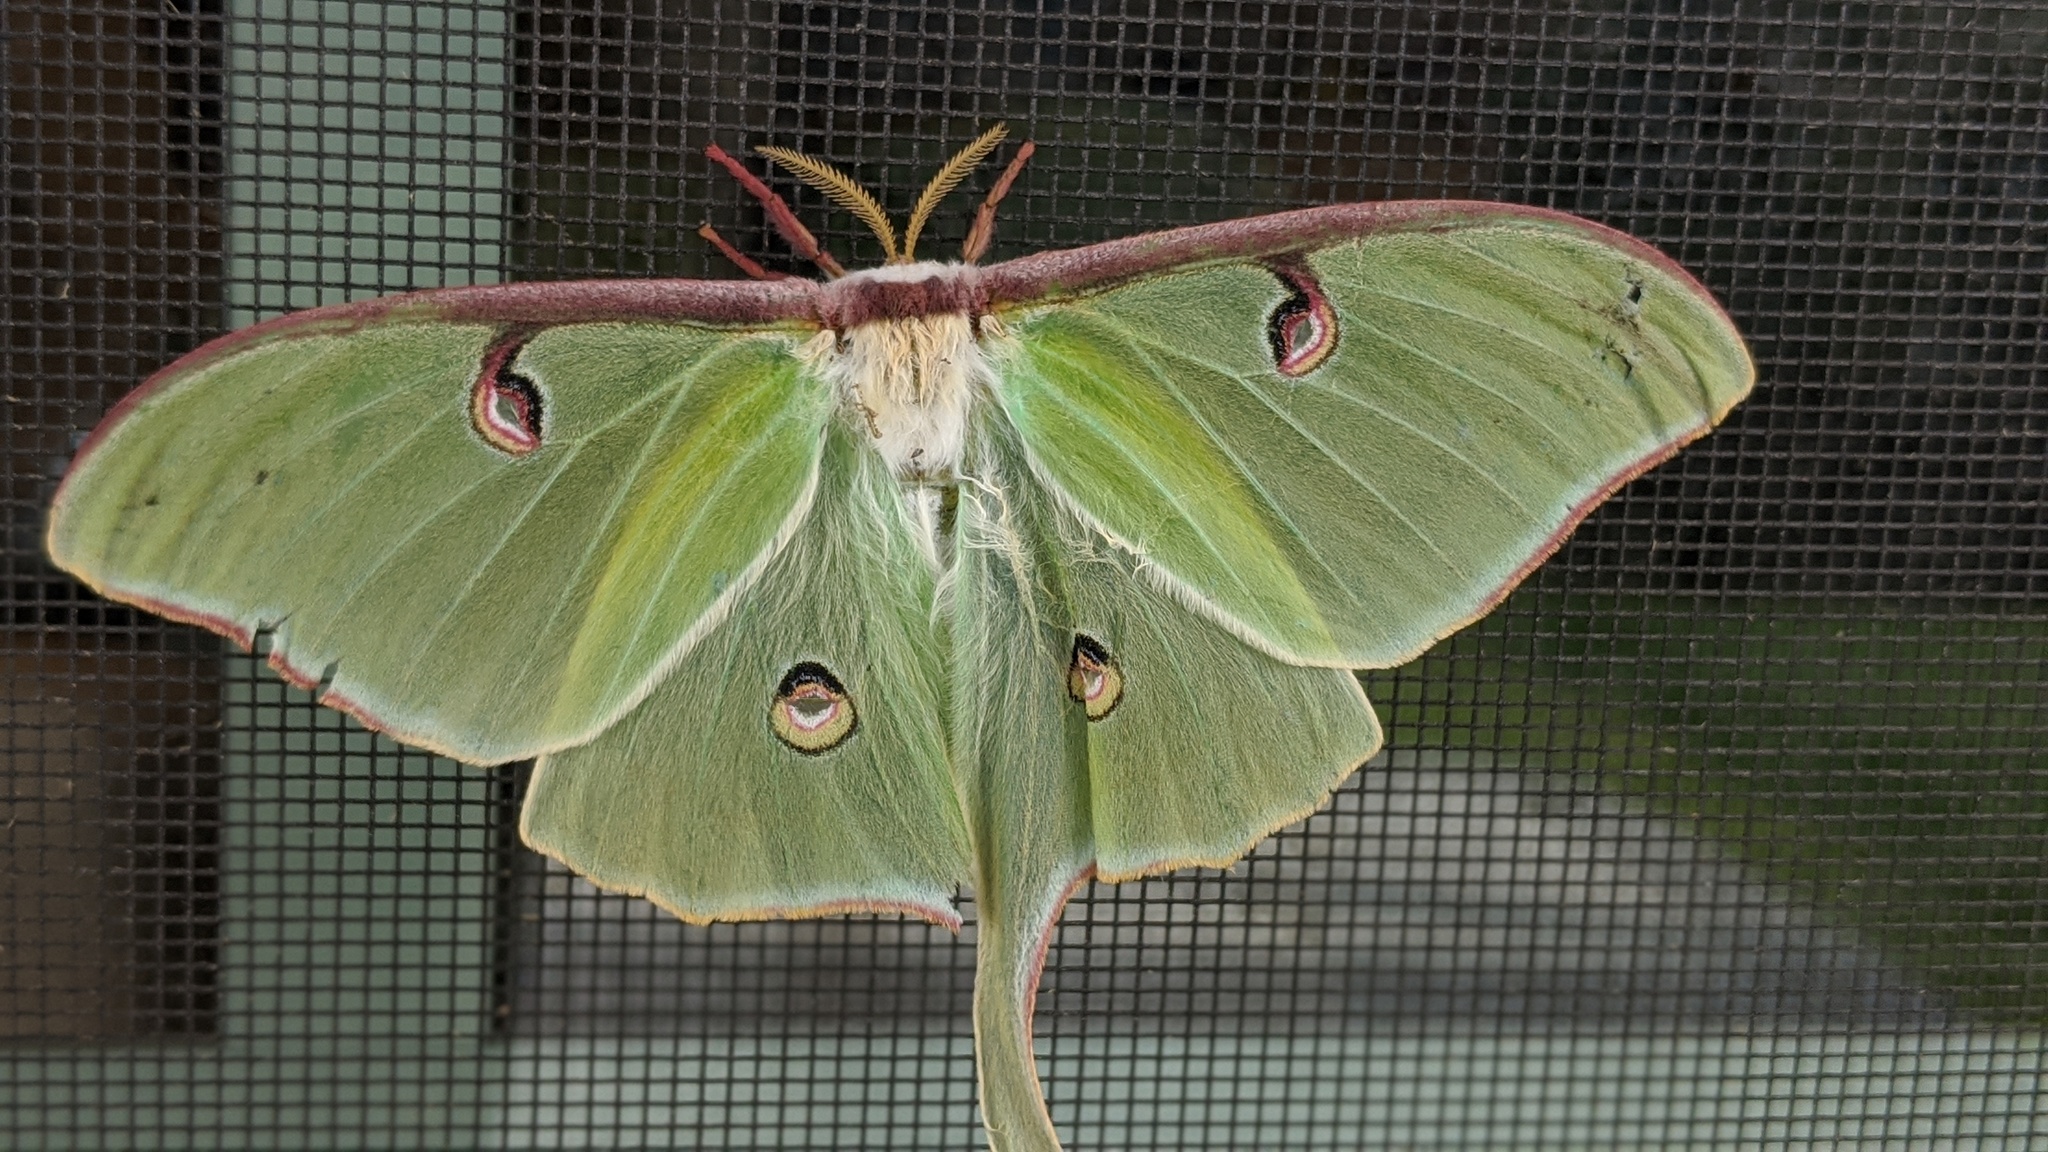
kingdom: Animalia
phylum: Arthropoda
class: Insecta
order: Lepidoptera
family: Saturniidae
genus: Actias
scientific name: Actias luna
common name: Luna moth
